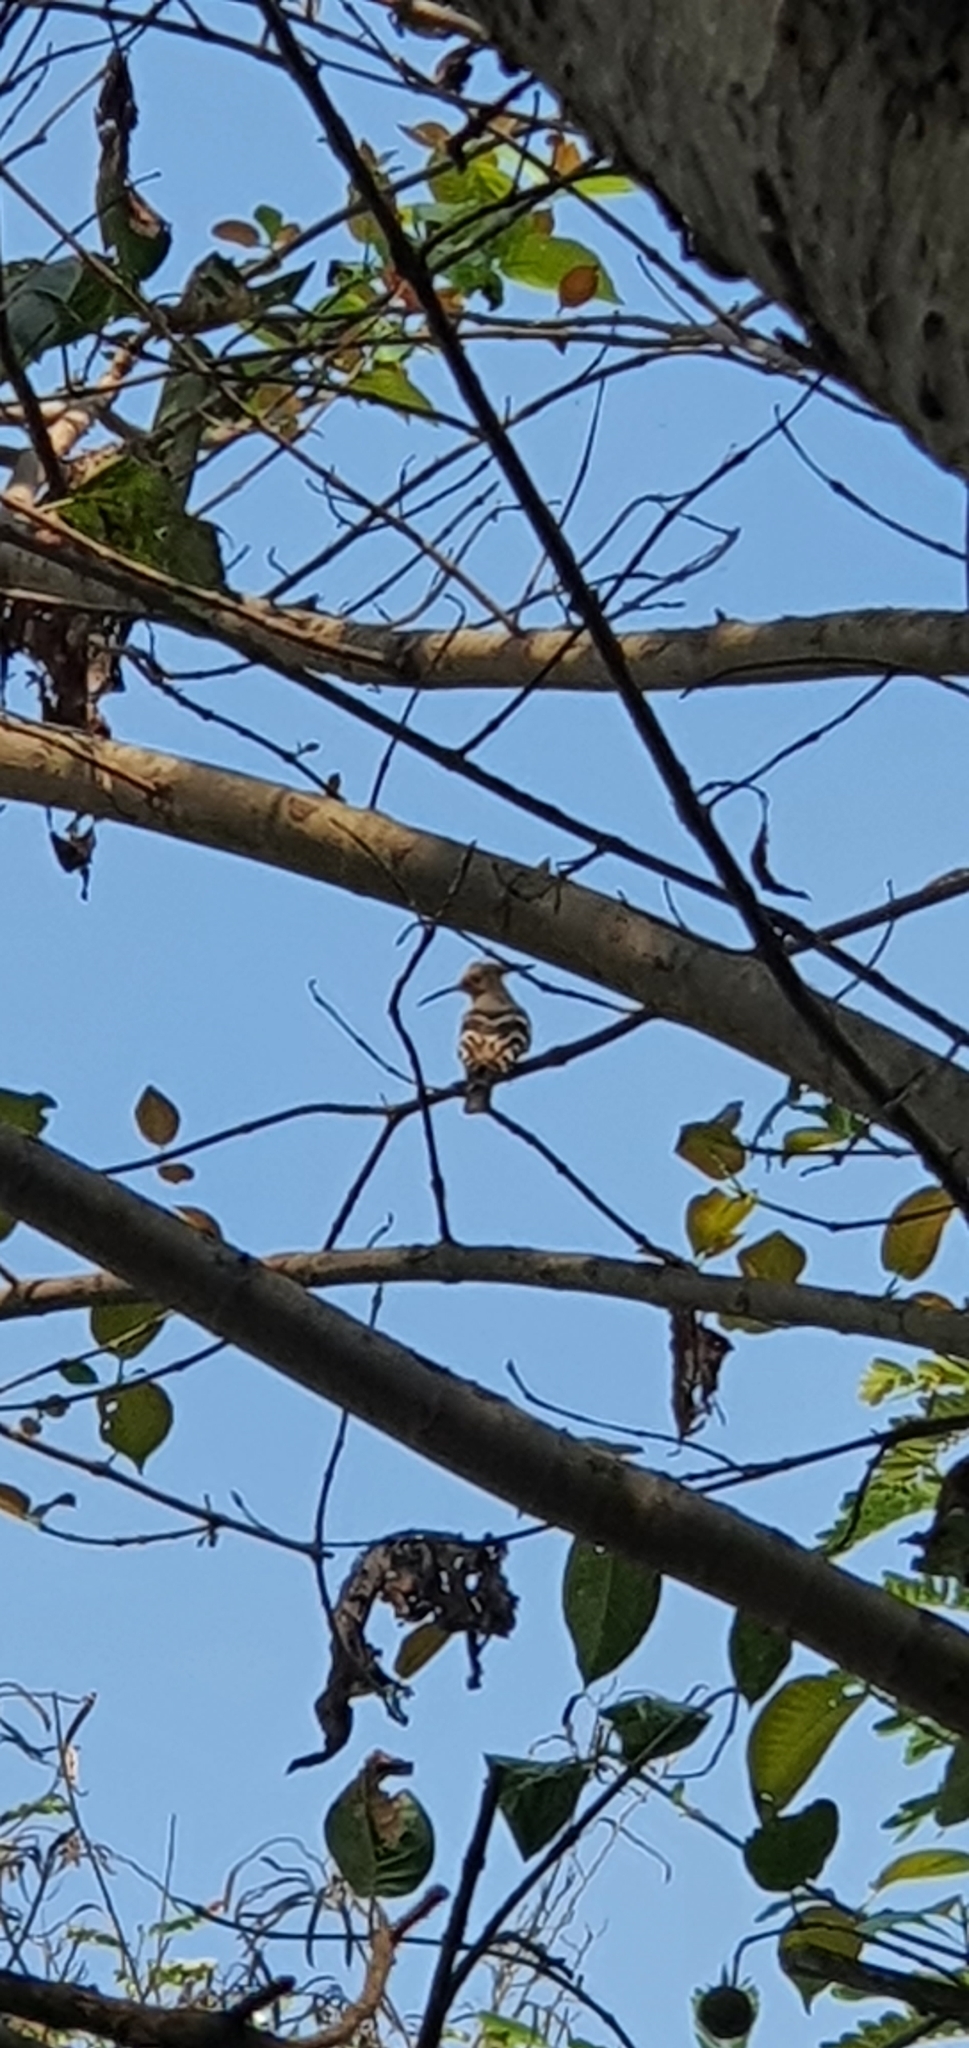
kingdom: Animalia
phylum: Chordata
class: Aves
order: Bucerotiformes
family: Upupidae
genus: Upupa
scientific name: Upupa epops
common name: Eurasian hoopoe
